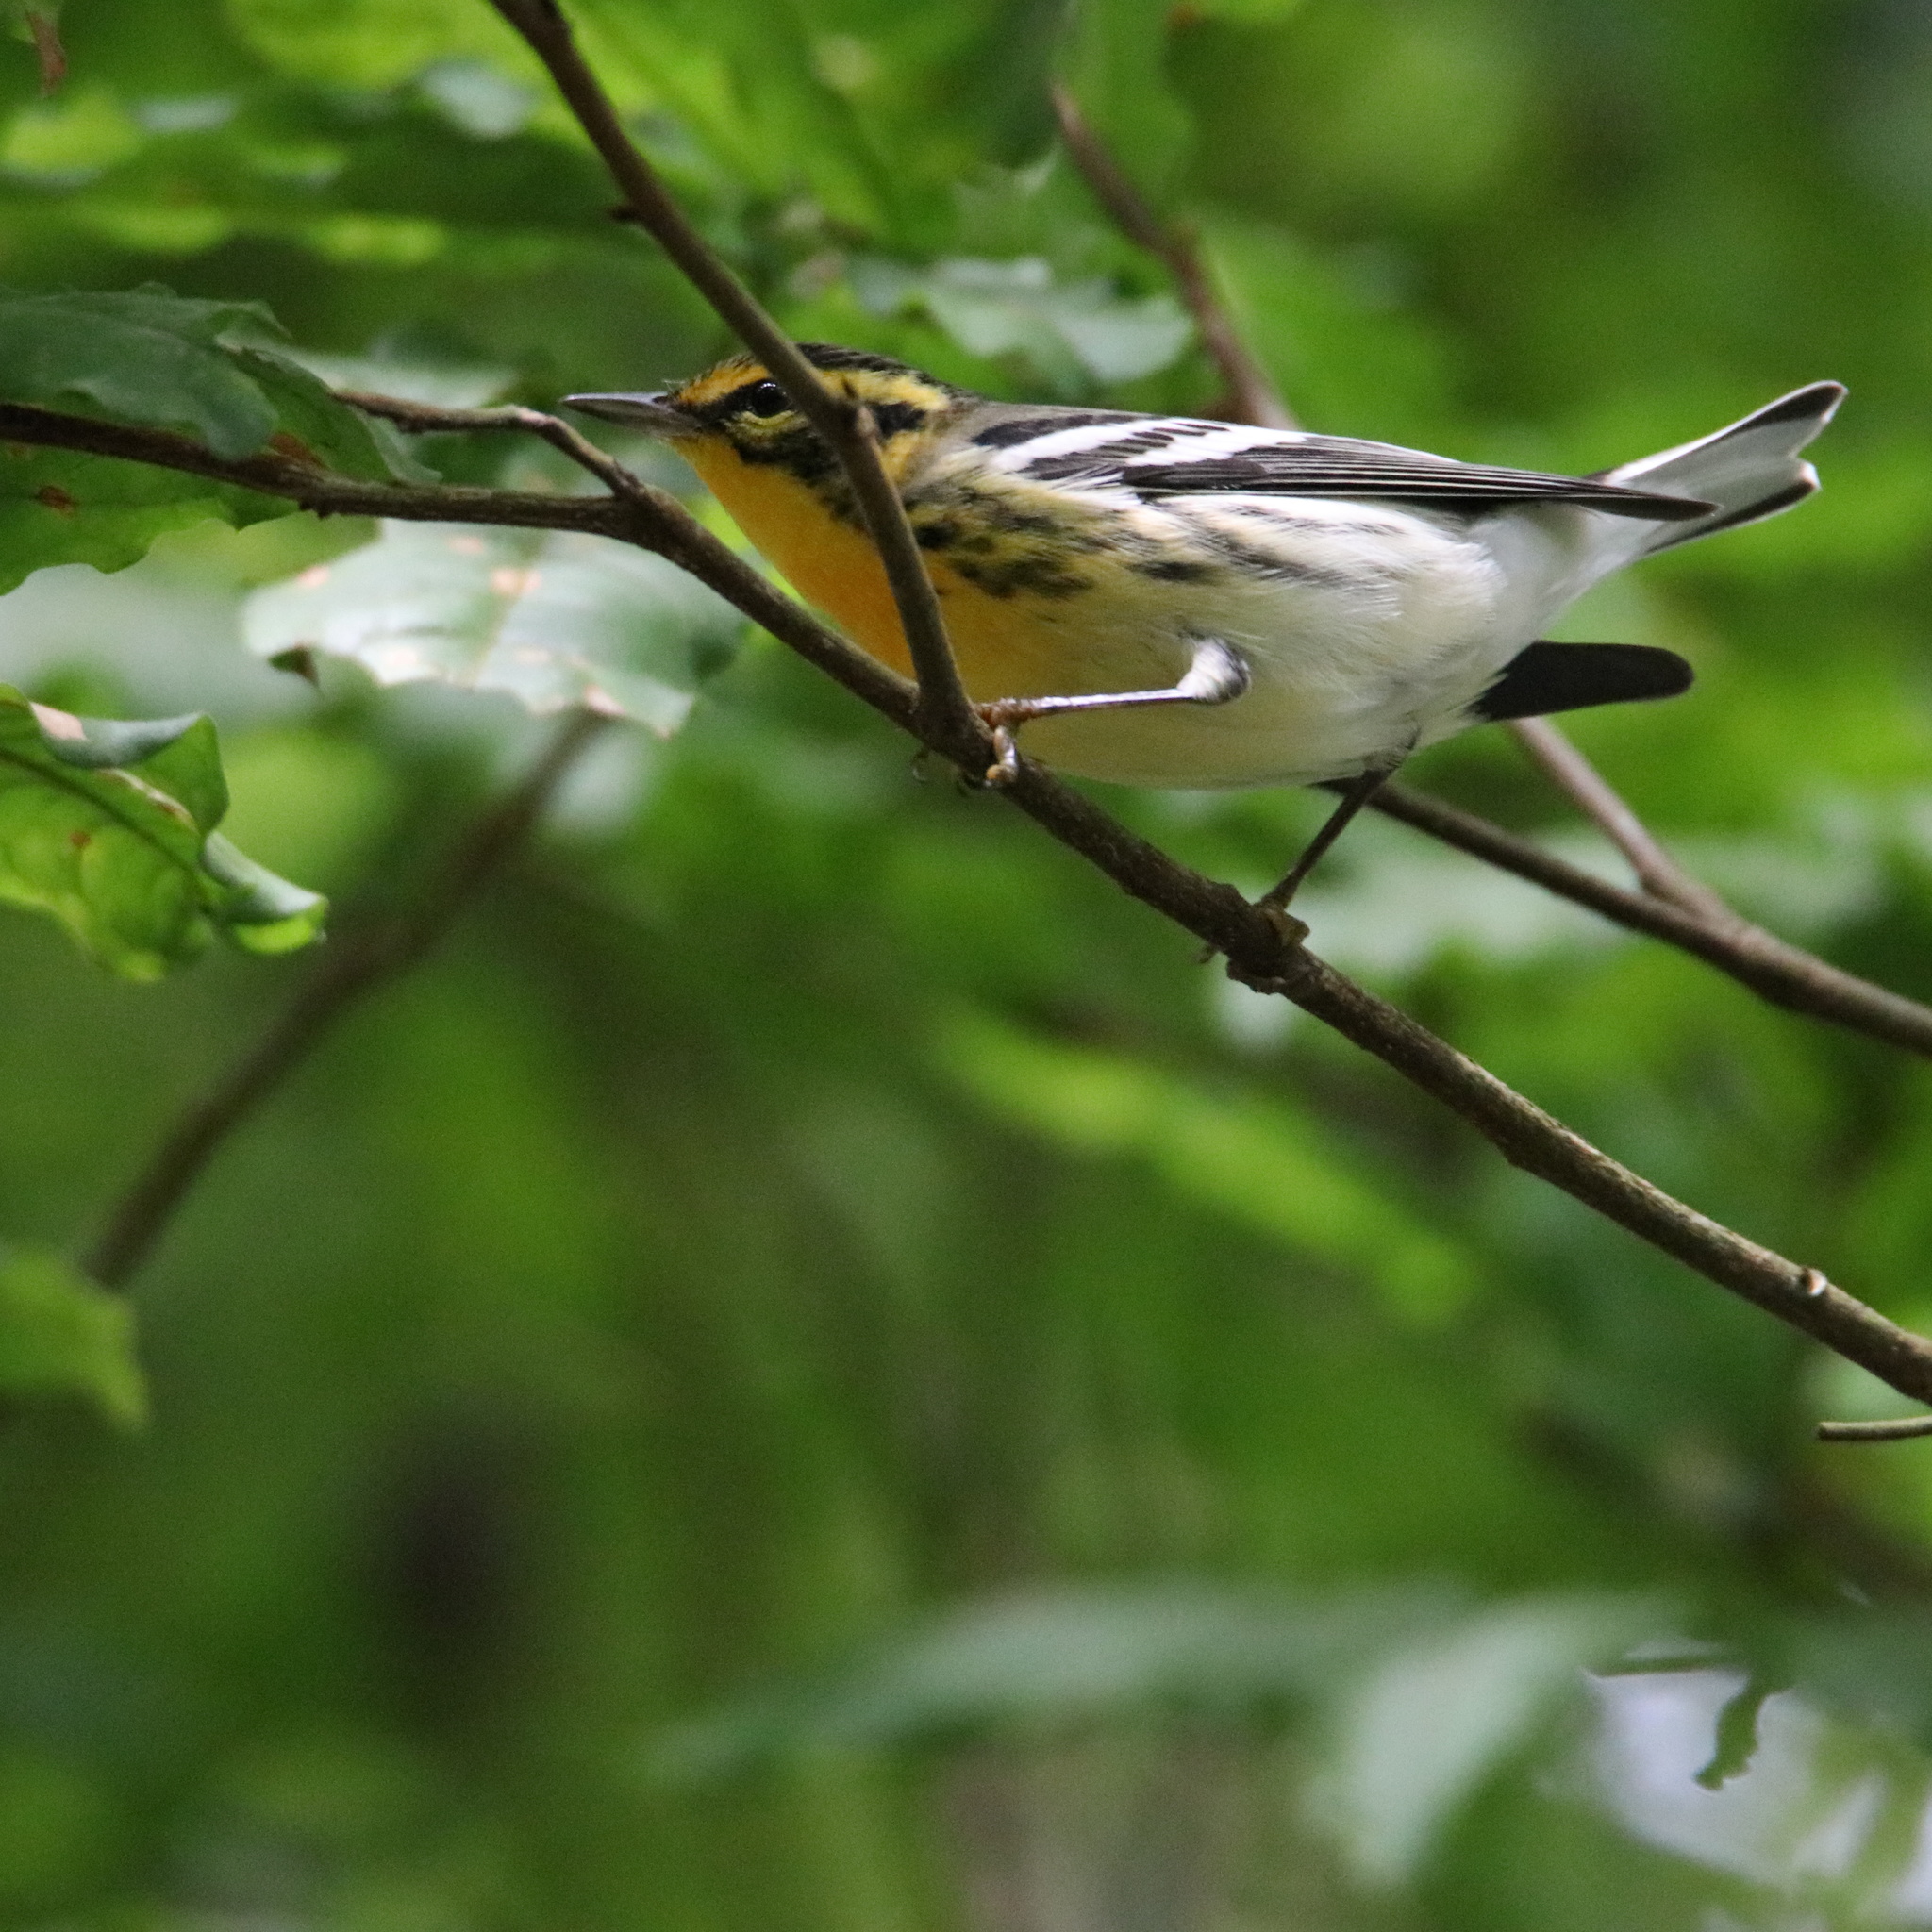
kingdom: Animalia
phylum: Chordata
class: Aves
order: Passeriformes
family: Parulidae
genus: Setophaga
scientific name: Setophaga fusca
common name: Blackburnian warbler
